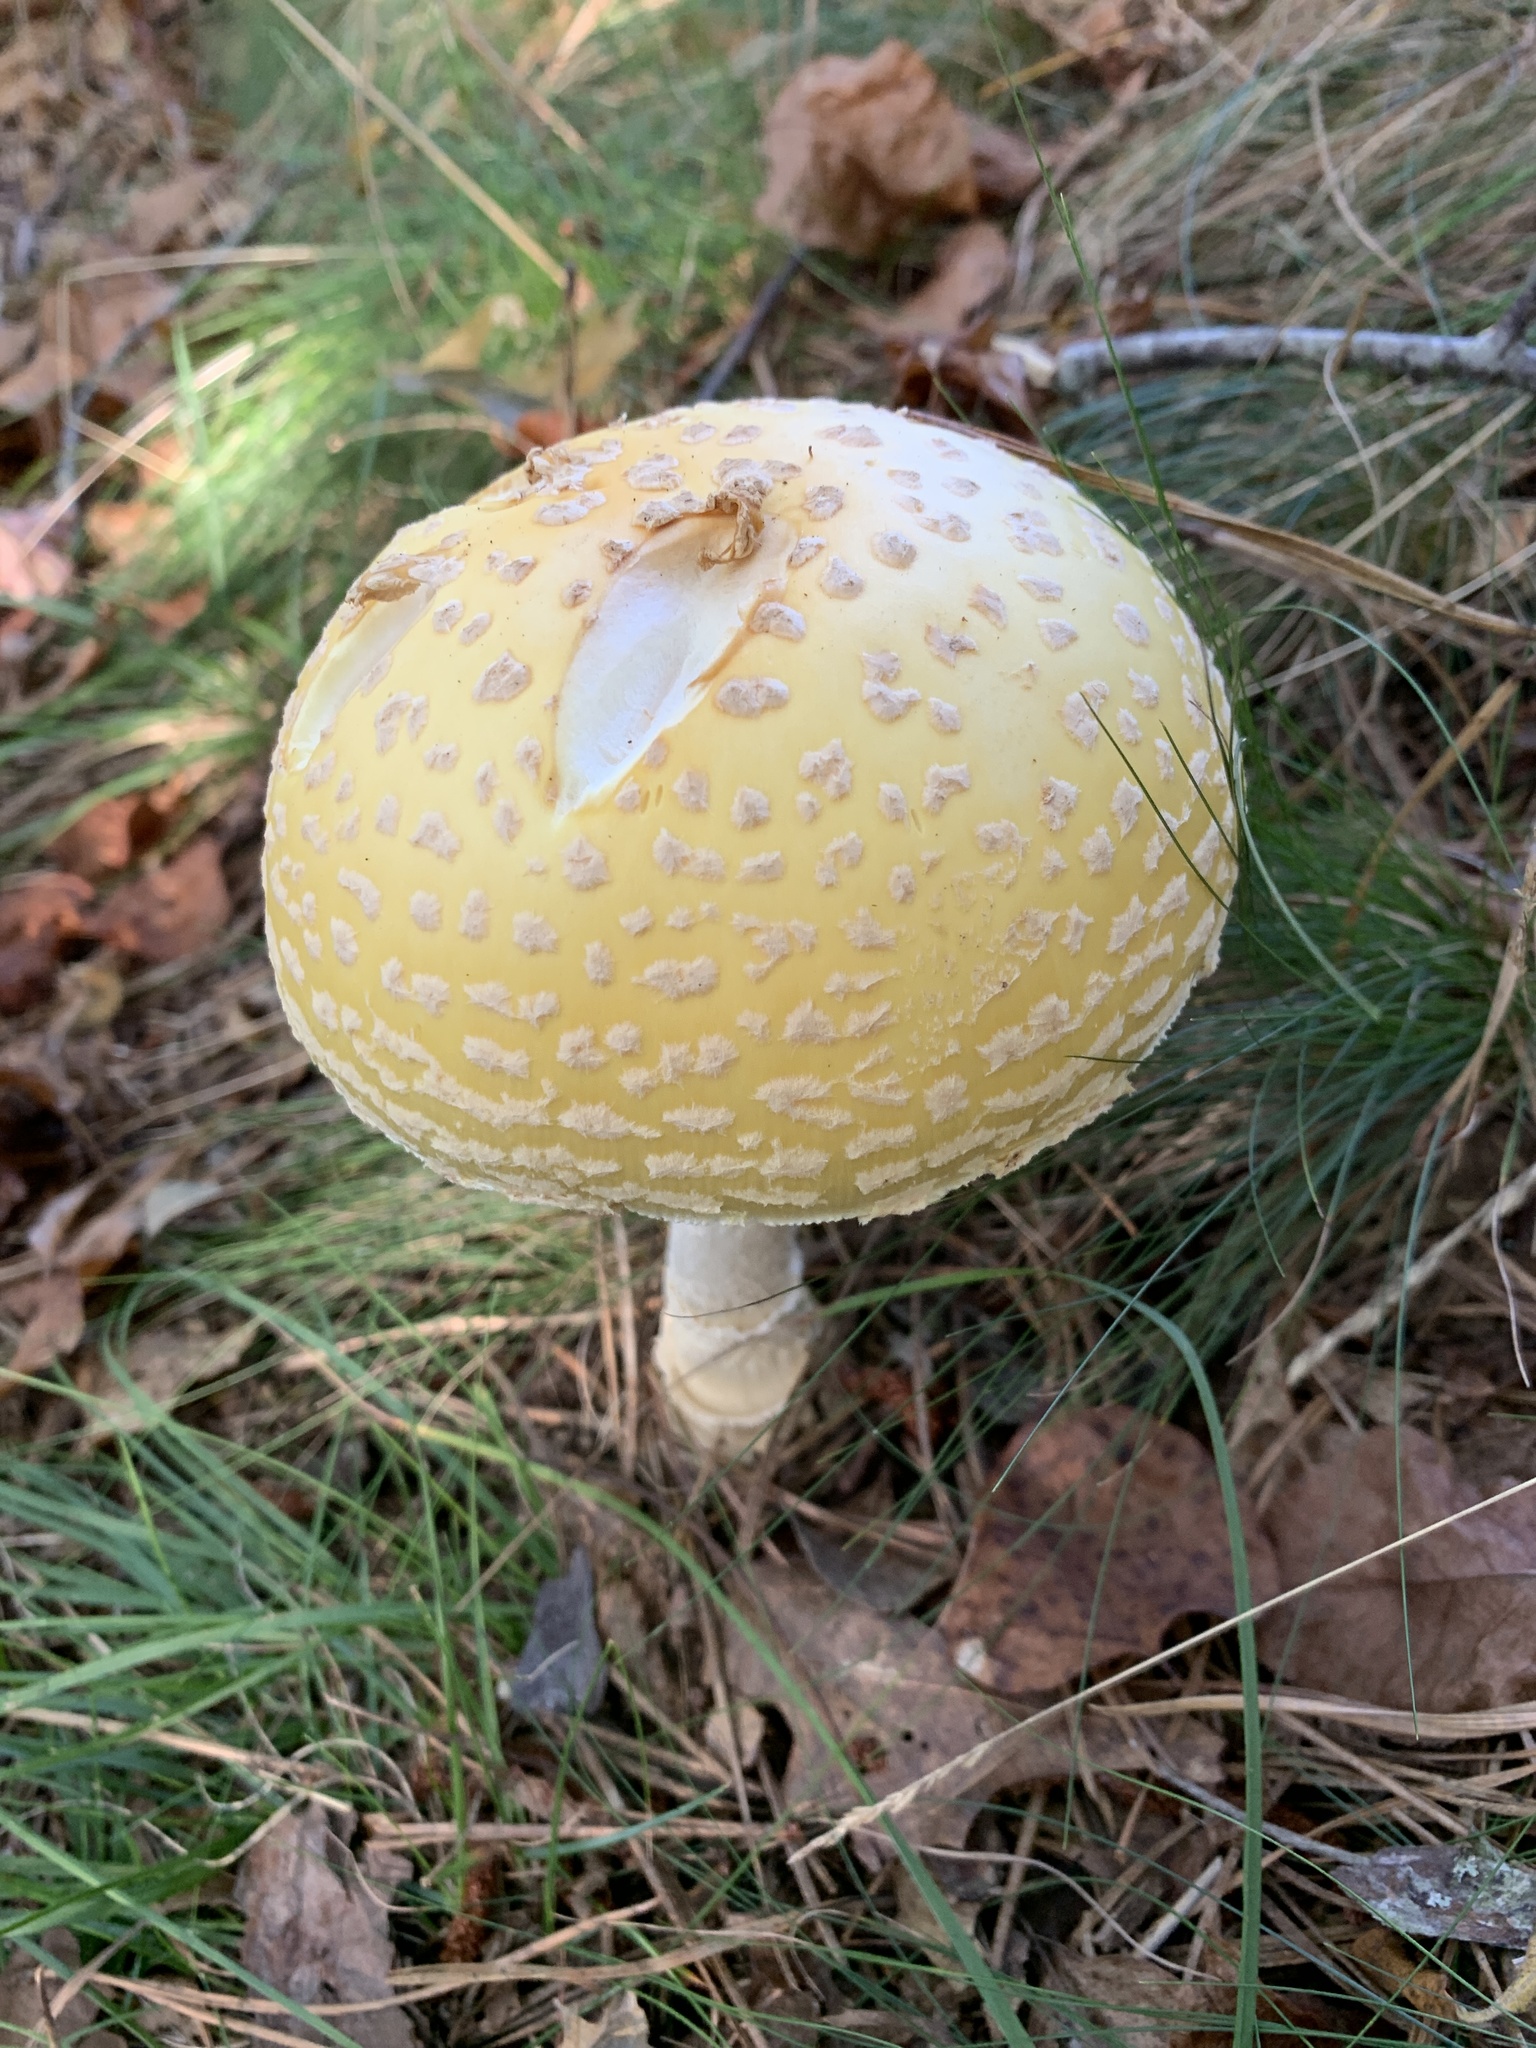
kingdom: Fungi
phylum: Basidiomycota
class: Agaricomycetes
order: Agaricales
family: Amanitaceae
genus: Amanita
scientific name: Amanita muscaria
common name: Fly agaric
